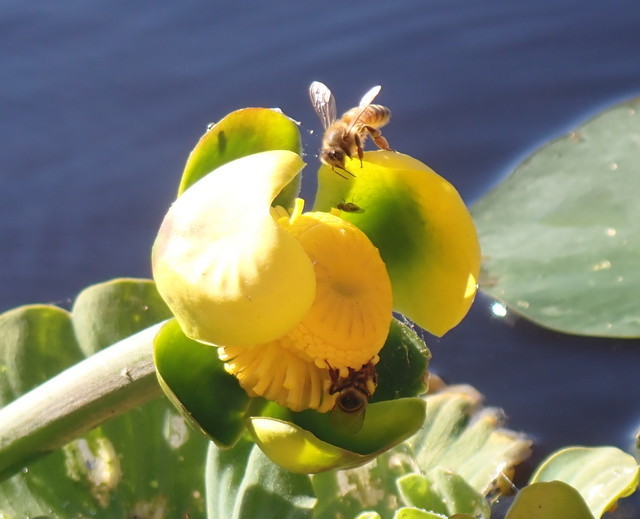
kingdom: Animalia
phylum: Arthropoda
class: Insecta
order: Hymenoptera
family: Apidae
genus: Apis
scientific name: Apis mellifera
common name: Honey bee
